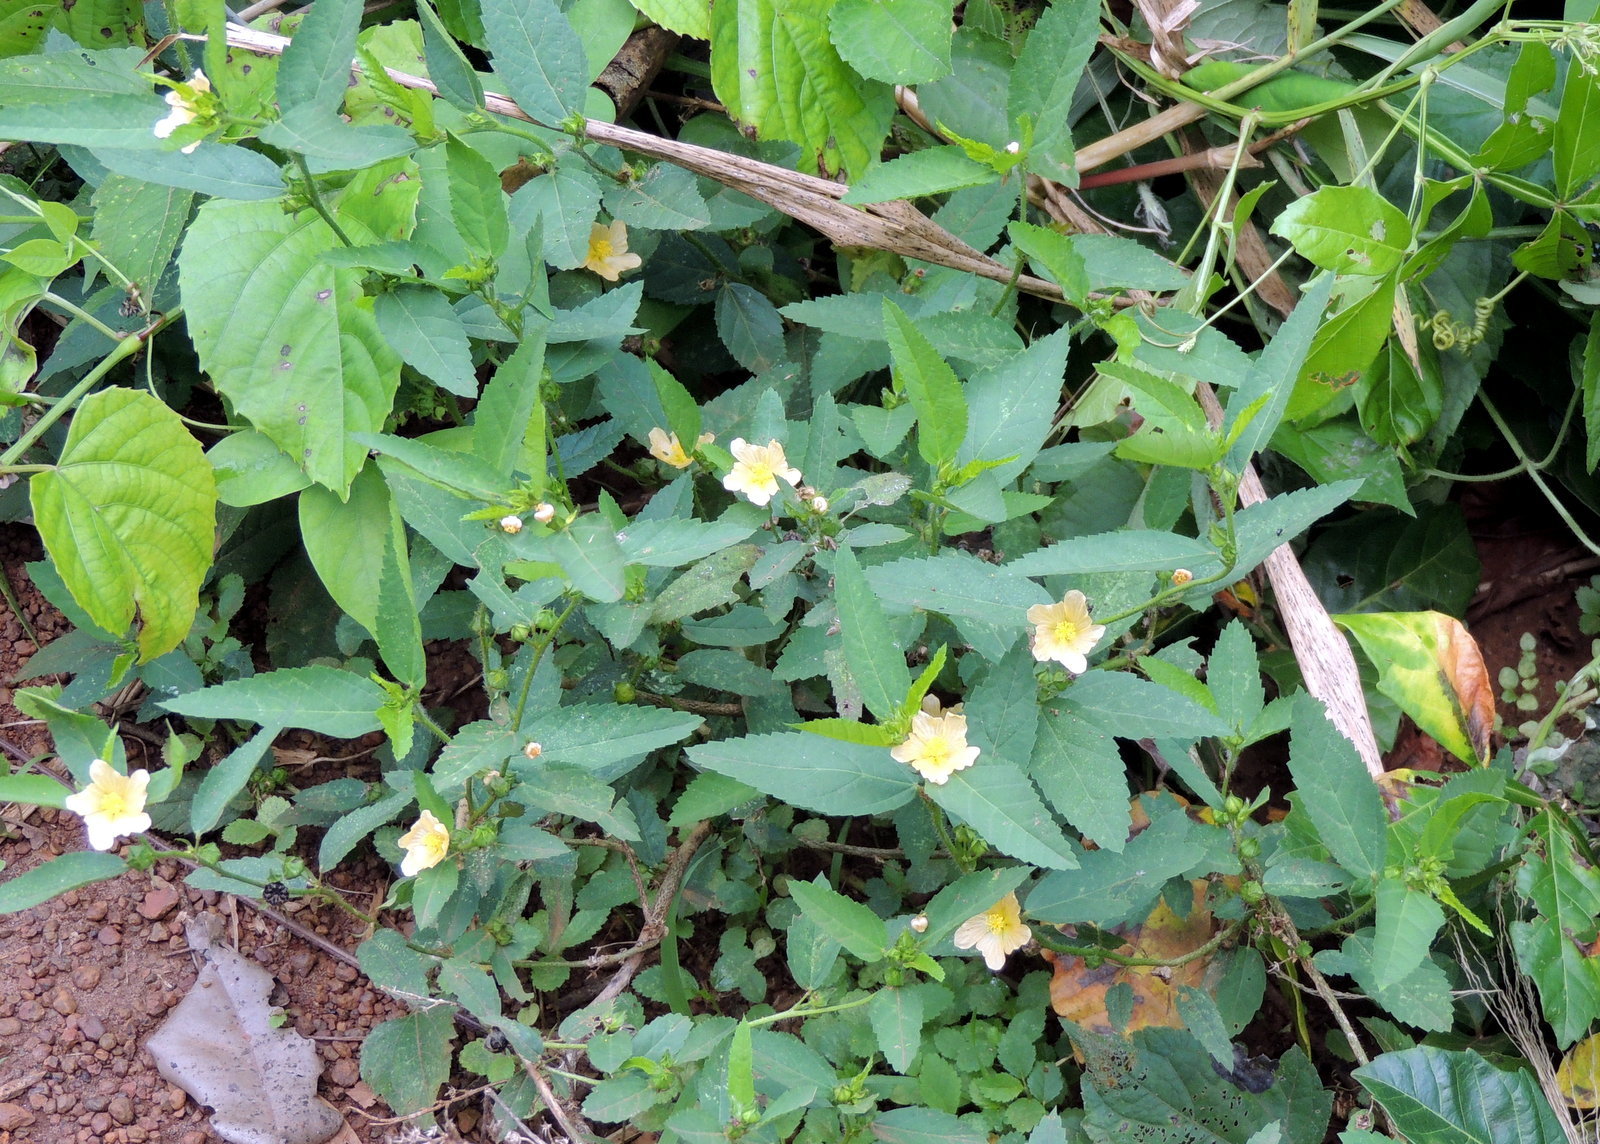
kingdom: Plantae
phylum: Tracheophyta
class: Magnoliopsida
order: Malvales
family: Malvaceae
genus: Sida
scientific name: Sida acuta
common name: Common wireweed
